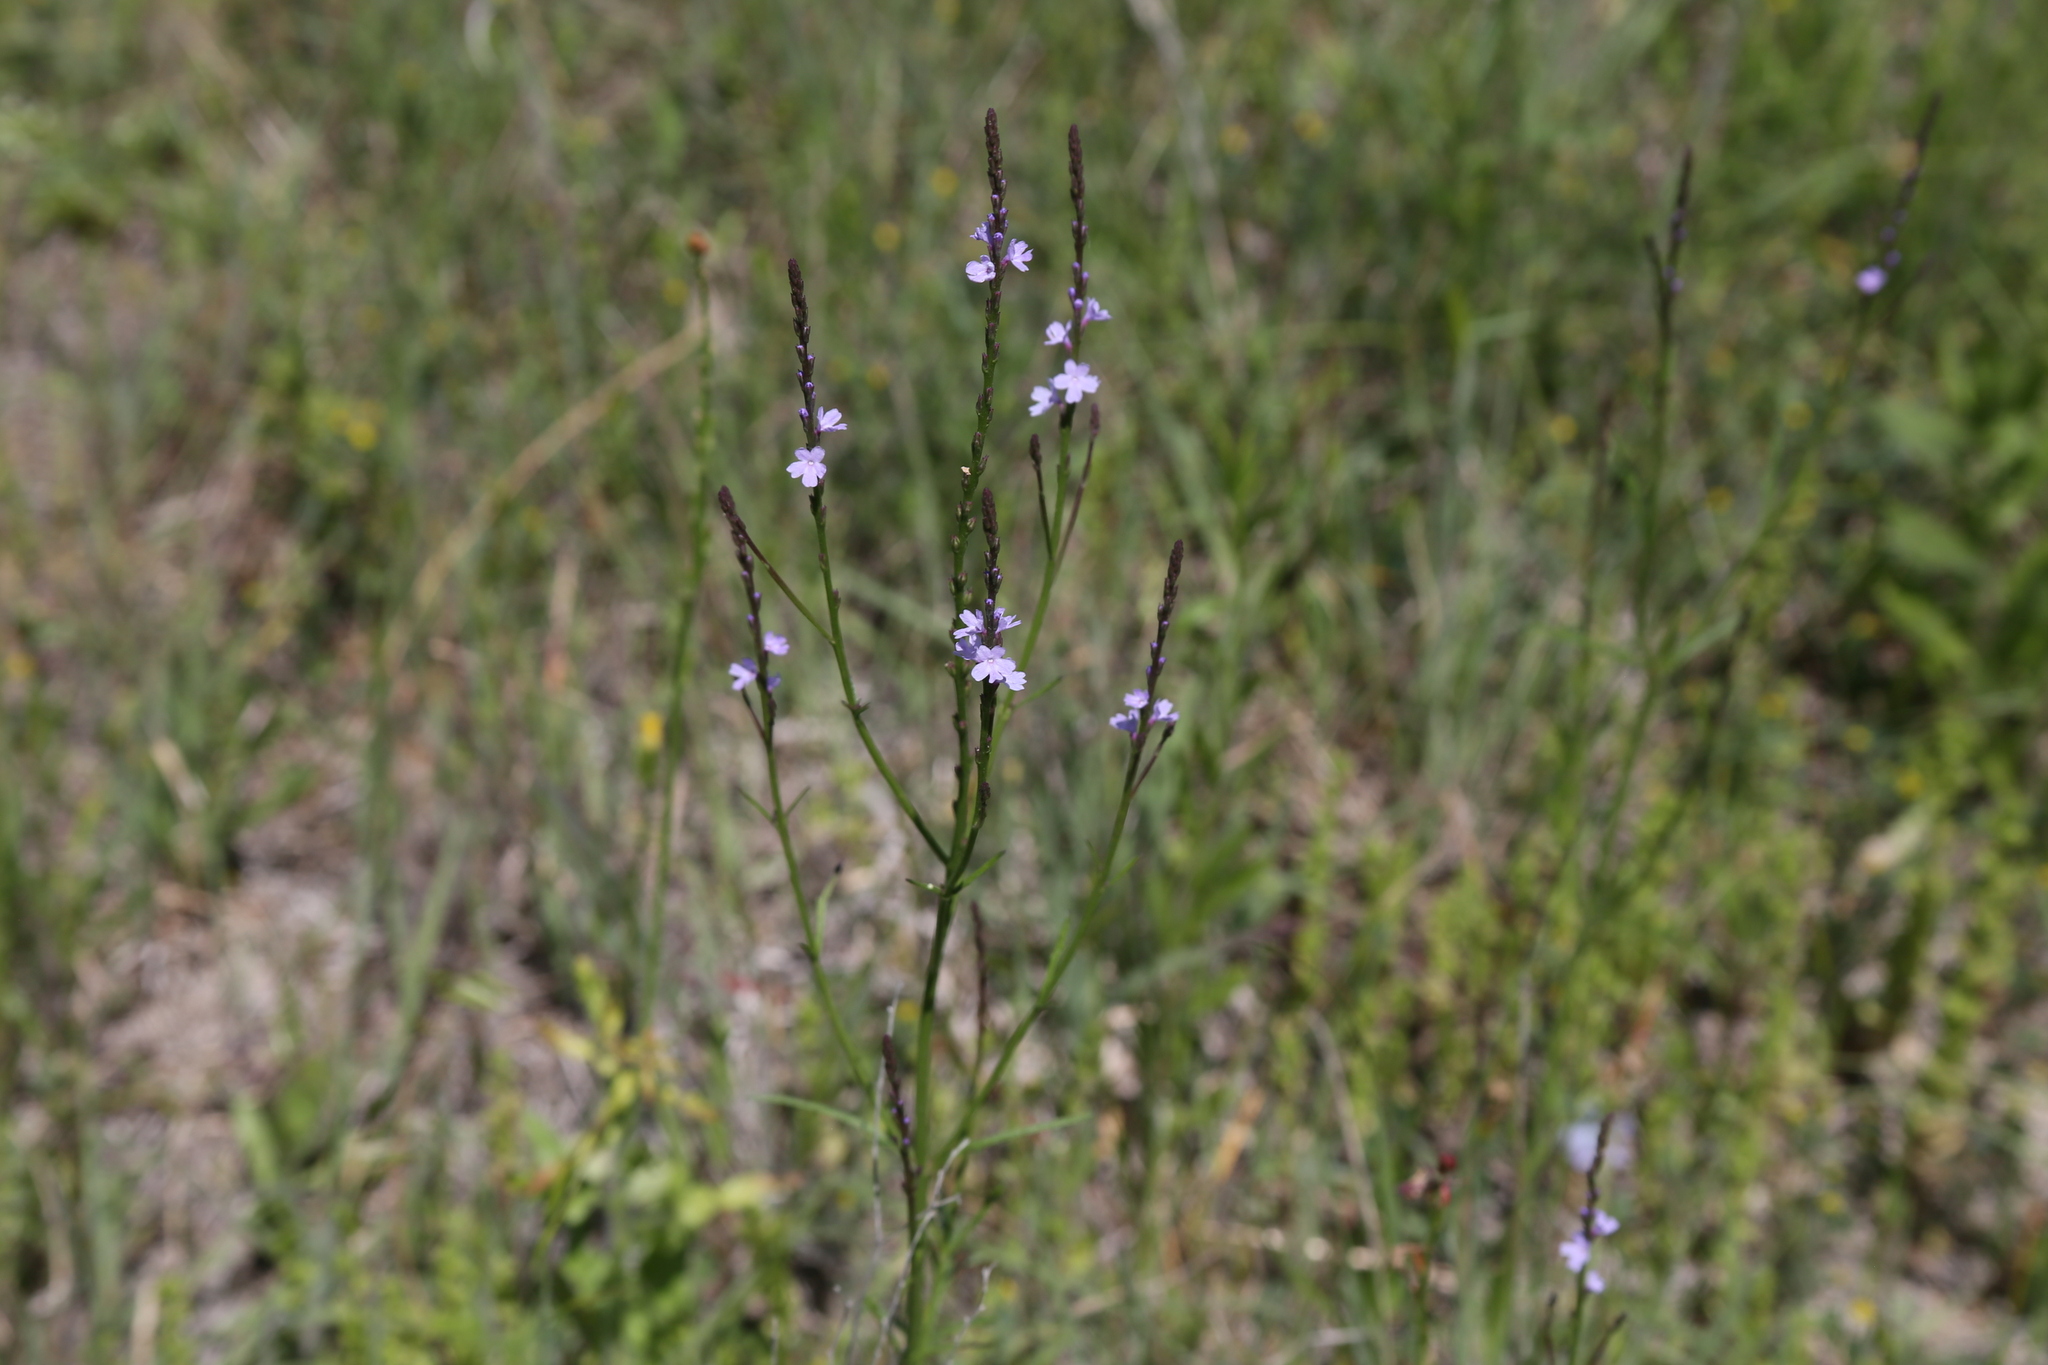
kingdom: Plantae
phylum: Tracheophyta
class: Magnoliopsida
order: Lamiales
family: Verbenaceae
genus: Verbena
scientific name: Verbena halei
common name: Texas vervain
